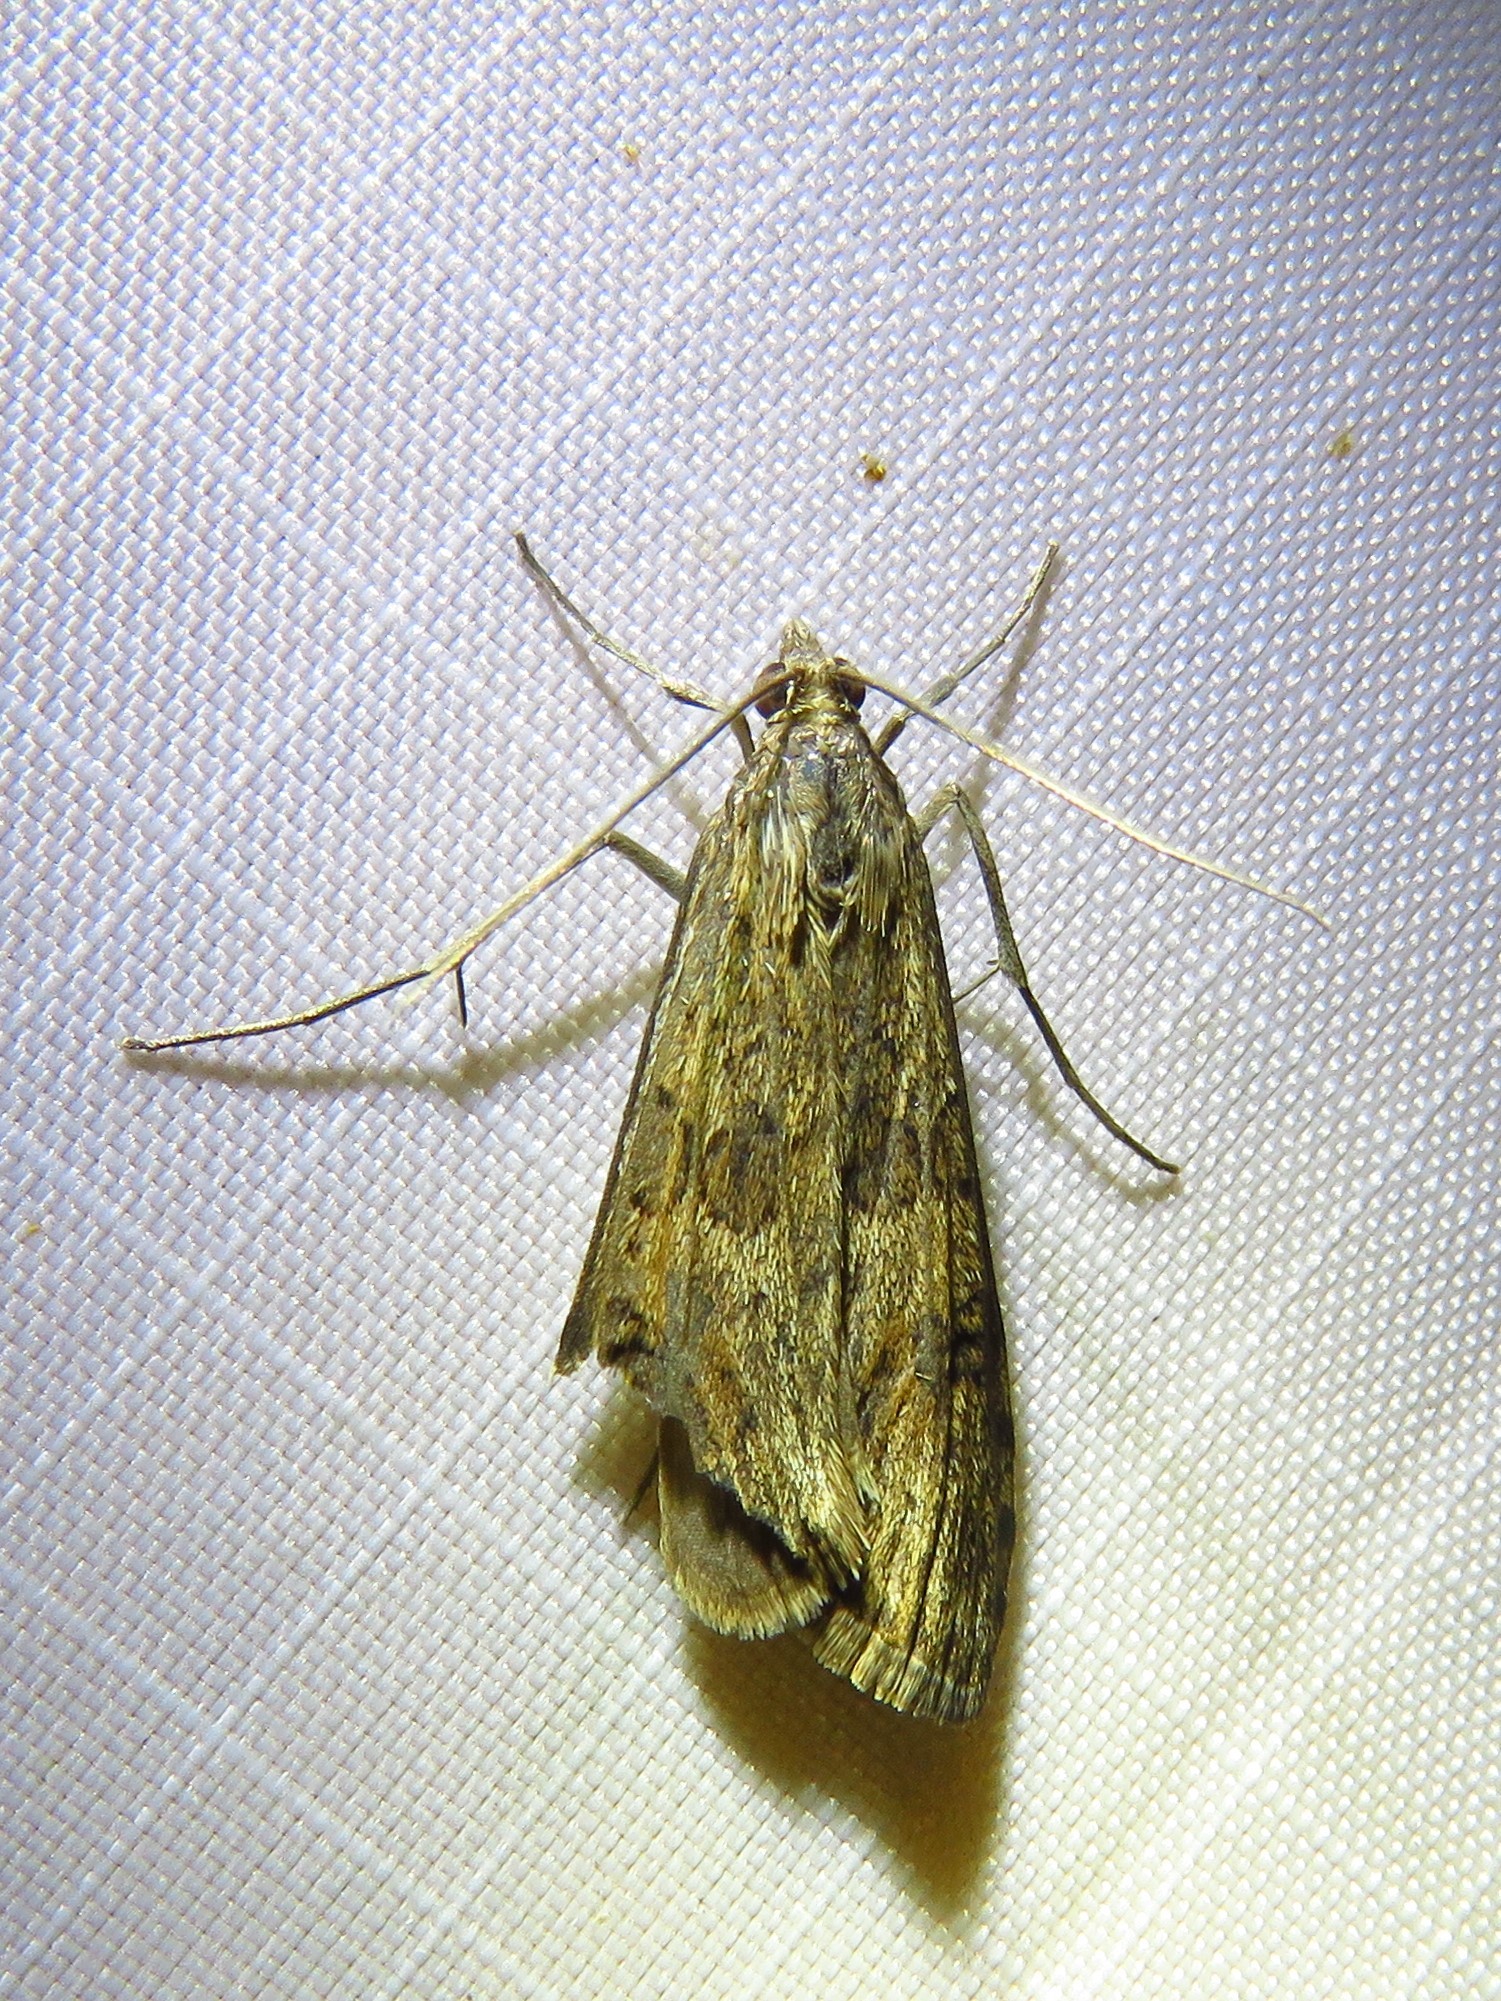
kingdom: Animalia
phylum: Arthropoda
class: Insecta
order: Lepidoptera
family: Crambidae
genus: Nomophila
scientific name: Nomophila nearctica
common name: American rush veneer
